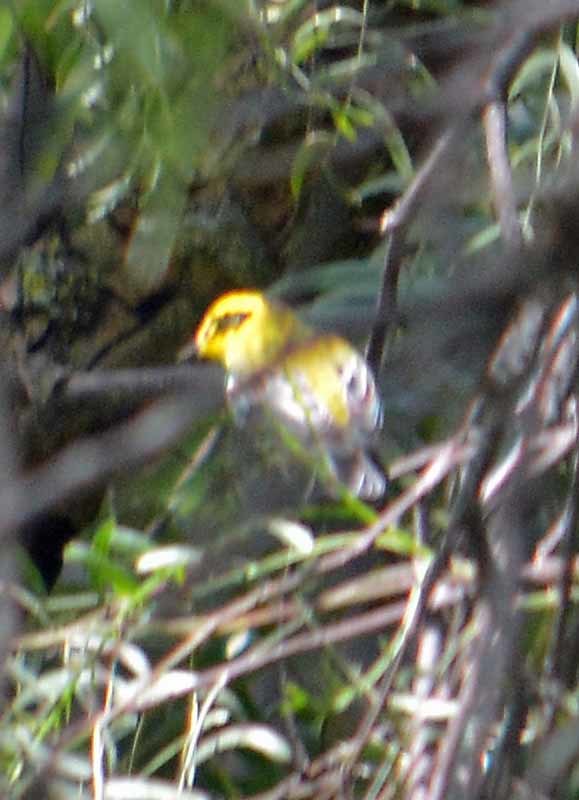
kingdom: Animalia
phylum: Chordata
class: Aves
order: Passeriformes
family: Parulidae
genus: Setophaga
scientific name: Setophaga townsendi
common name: Townsend's warbler
